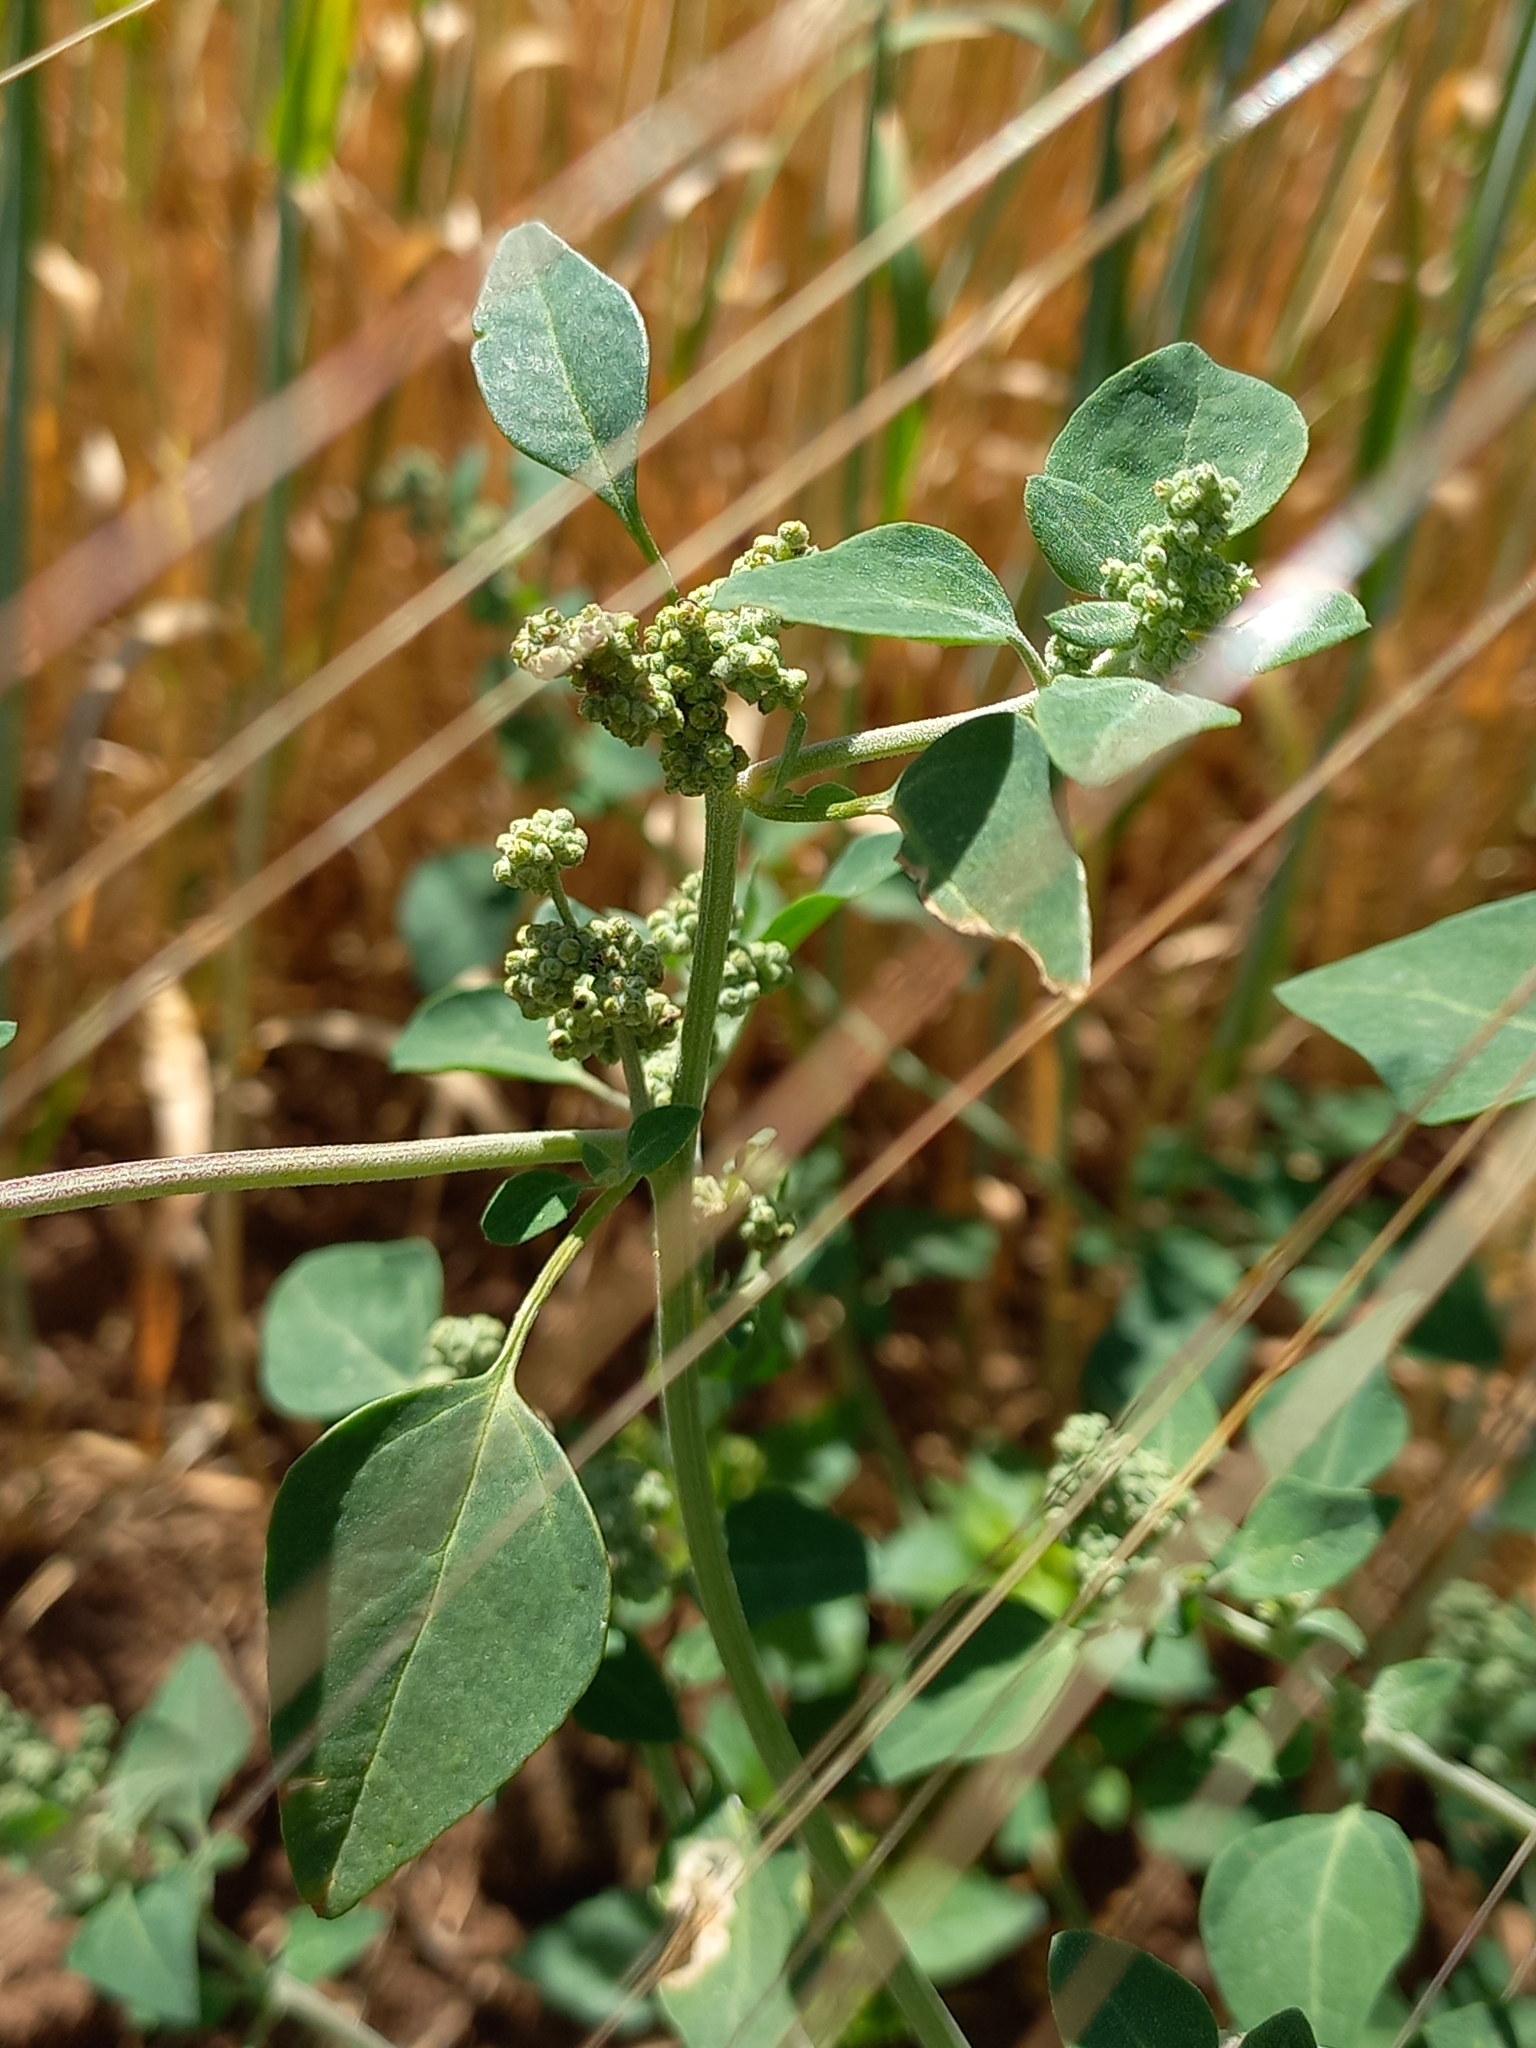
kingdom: Plantae
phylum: Tracheophyta
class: Magnoliopsida
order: Caryophyllales
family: Amaranthaceae
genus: Chenopodium
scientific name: Chenopodium vulvaria
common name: Stinking goosefoot
